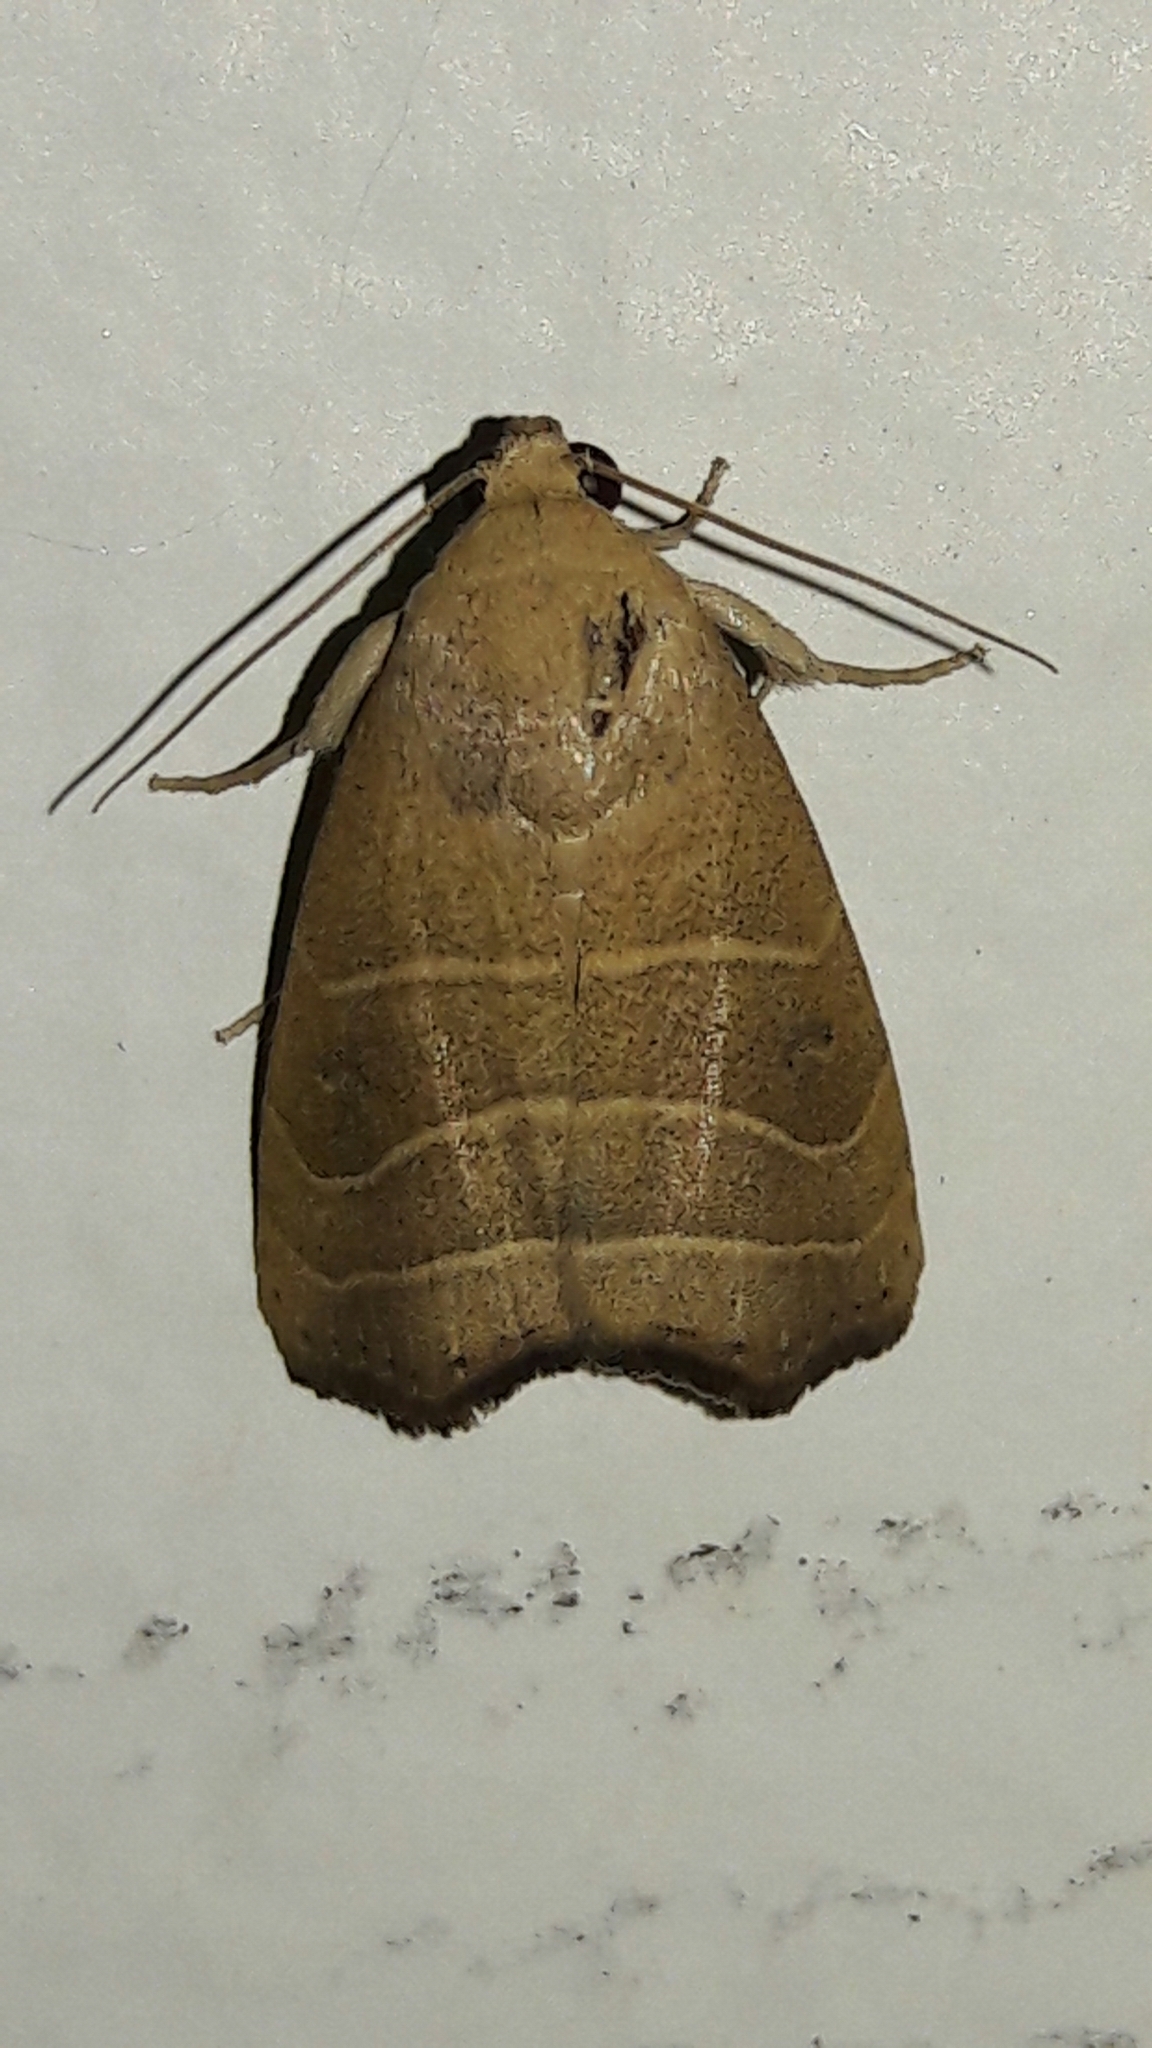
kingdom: Animalia
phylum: Arthropoda
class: Insecta
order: Lepidoptera
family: Noctuidae
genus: Bagisara
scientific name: Bagisara repanda
